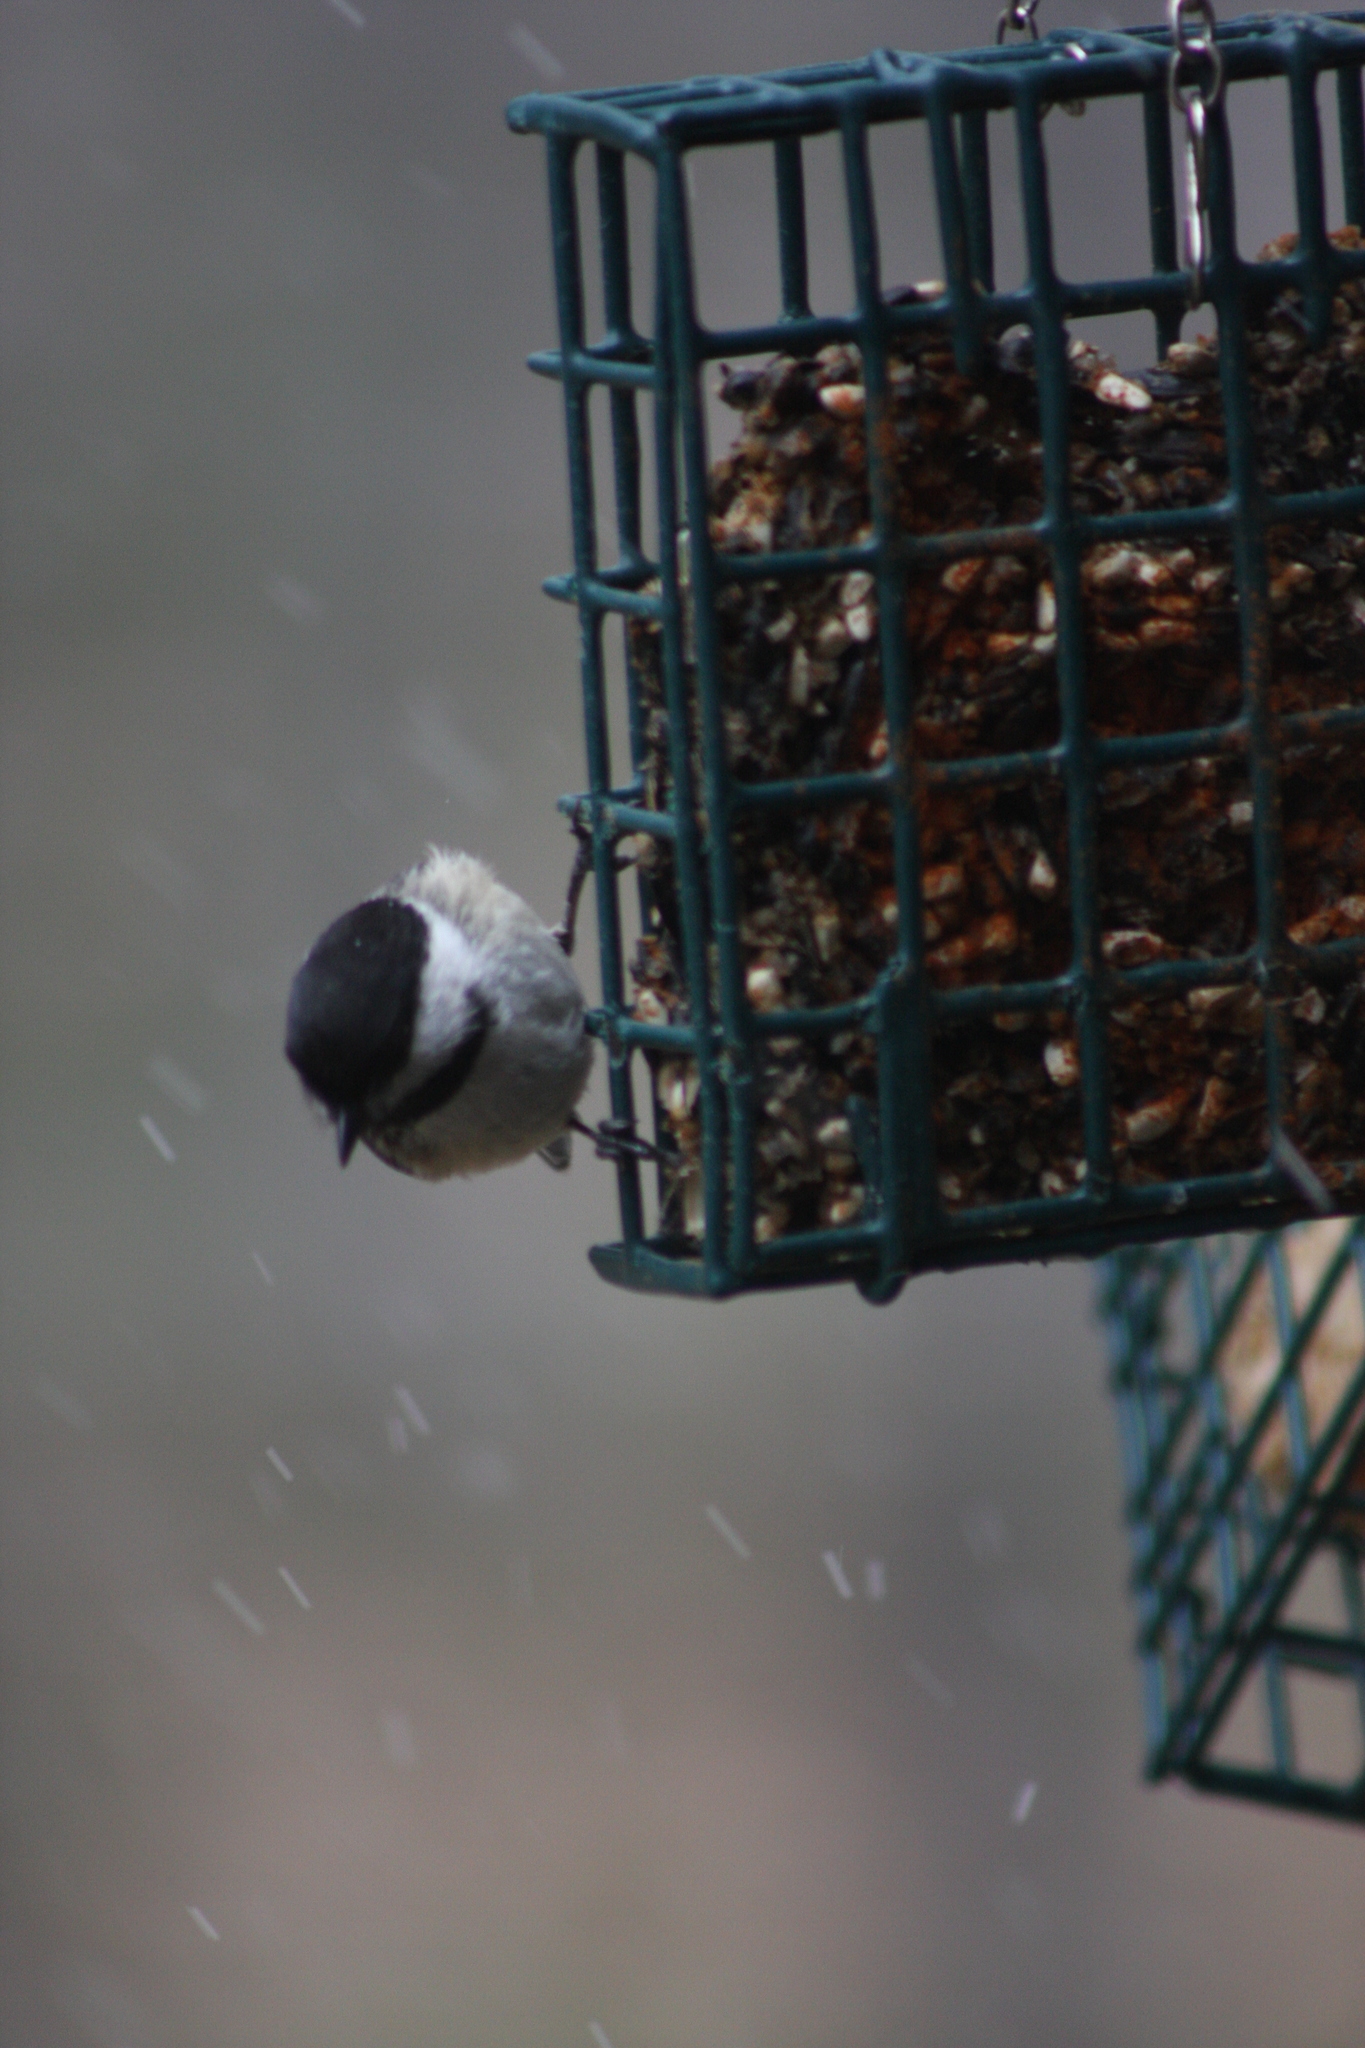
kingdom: Animalia
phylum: Chordata
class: Aves
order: Passeriformes
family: Paridae
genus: Poecile
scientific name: Poecile atricapillus
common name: Black-capped chickadee
